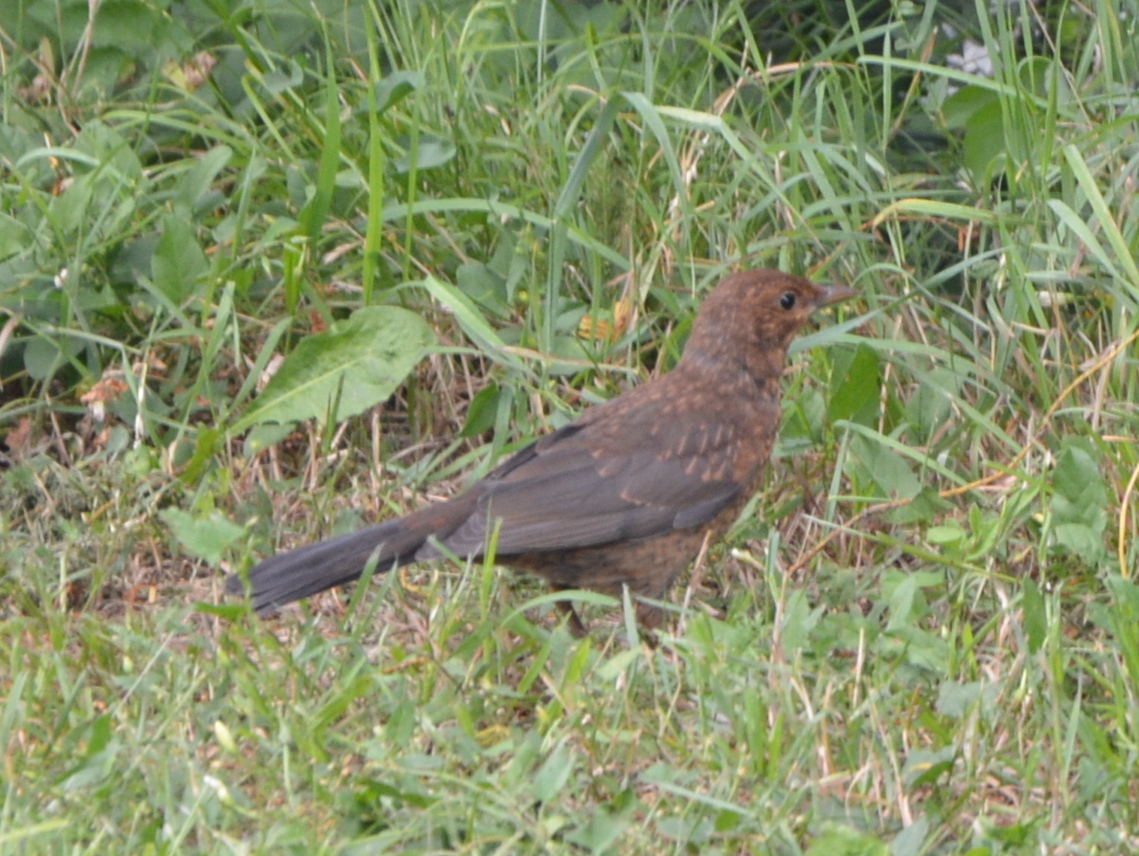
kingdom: Animalia
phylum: Chordata
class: Aves
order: Passeriformes
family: Turdidae
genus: Turdus
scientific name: Turdus merula
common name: Common blackbird
